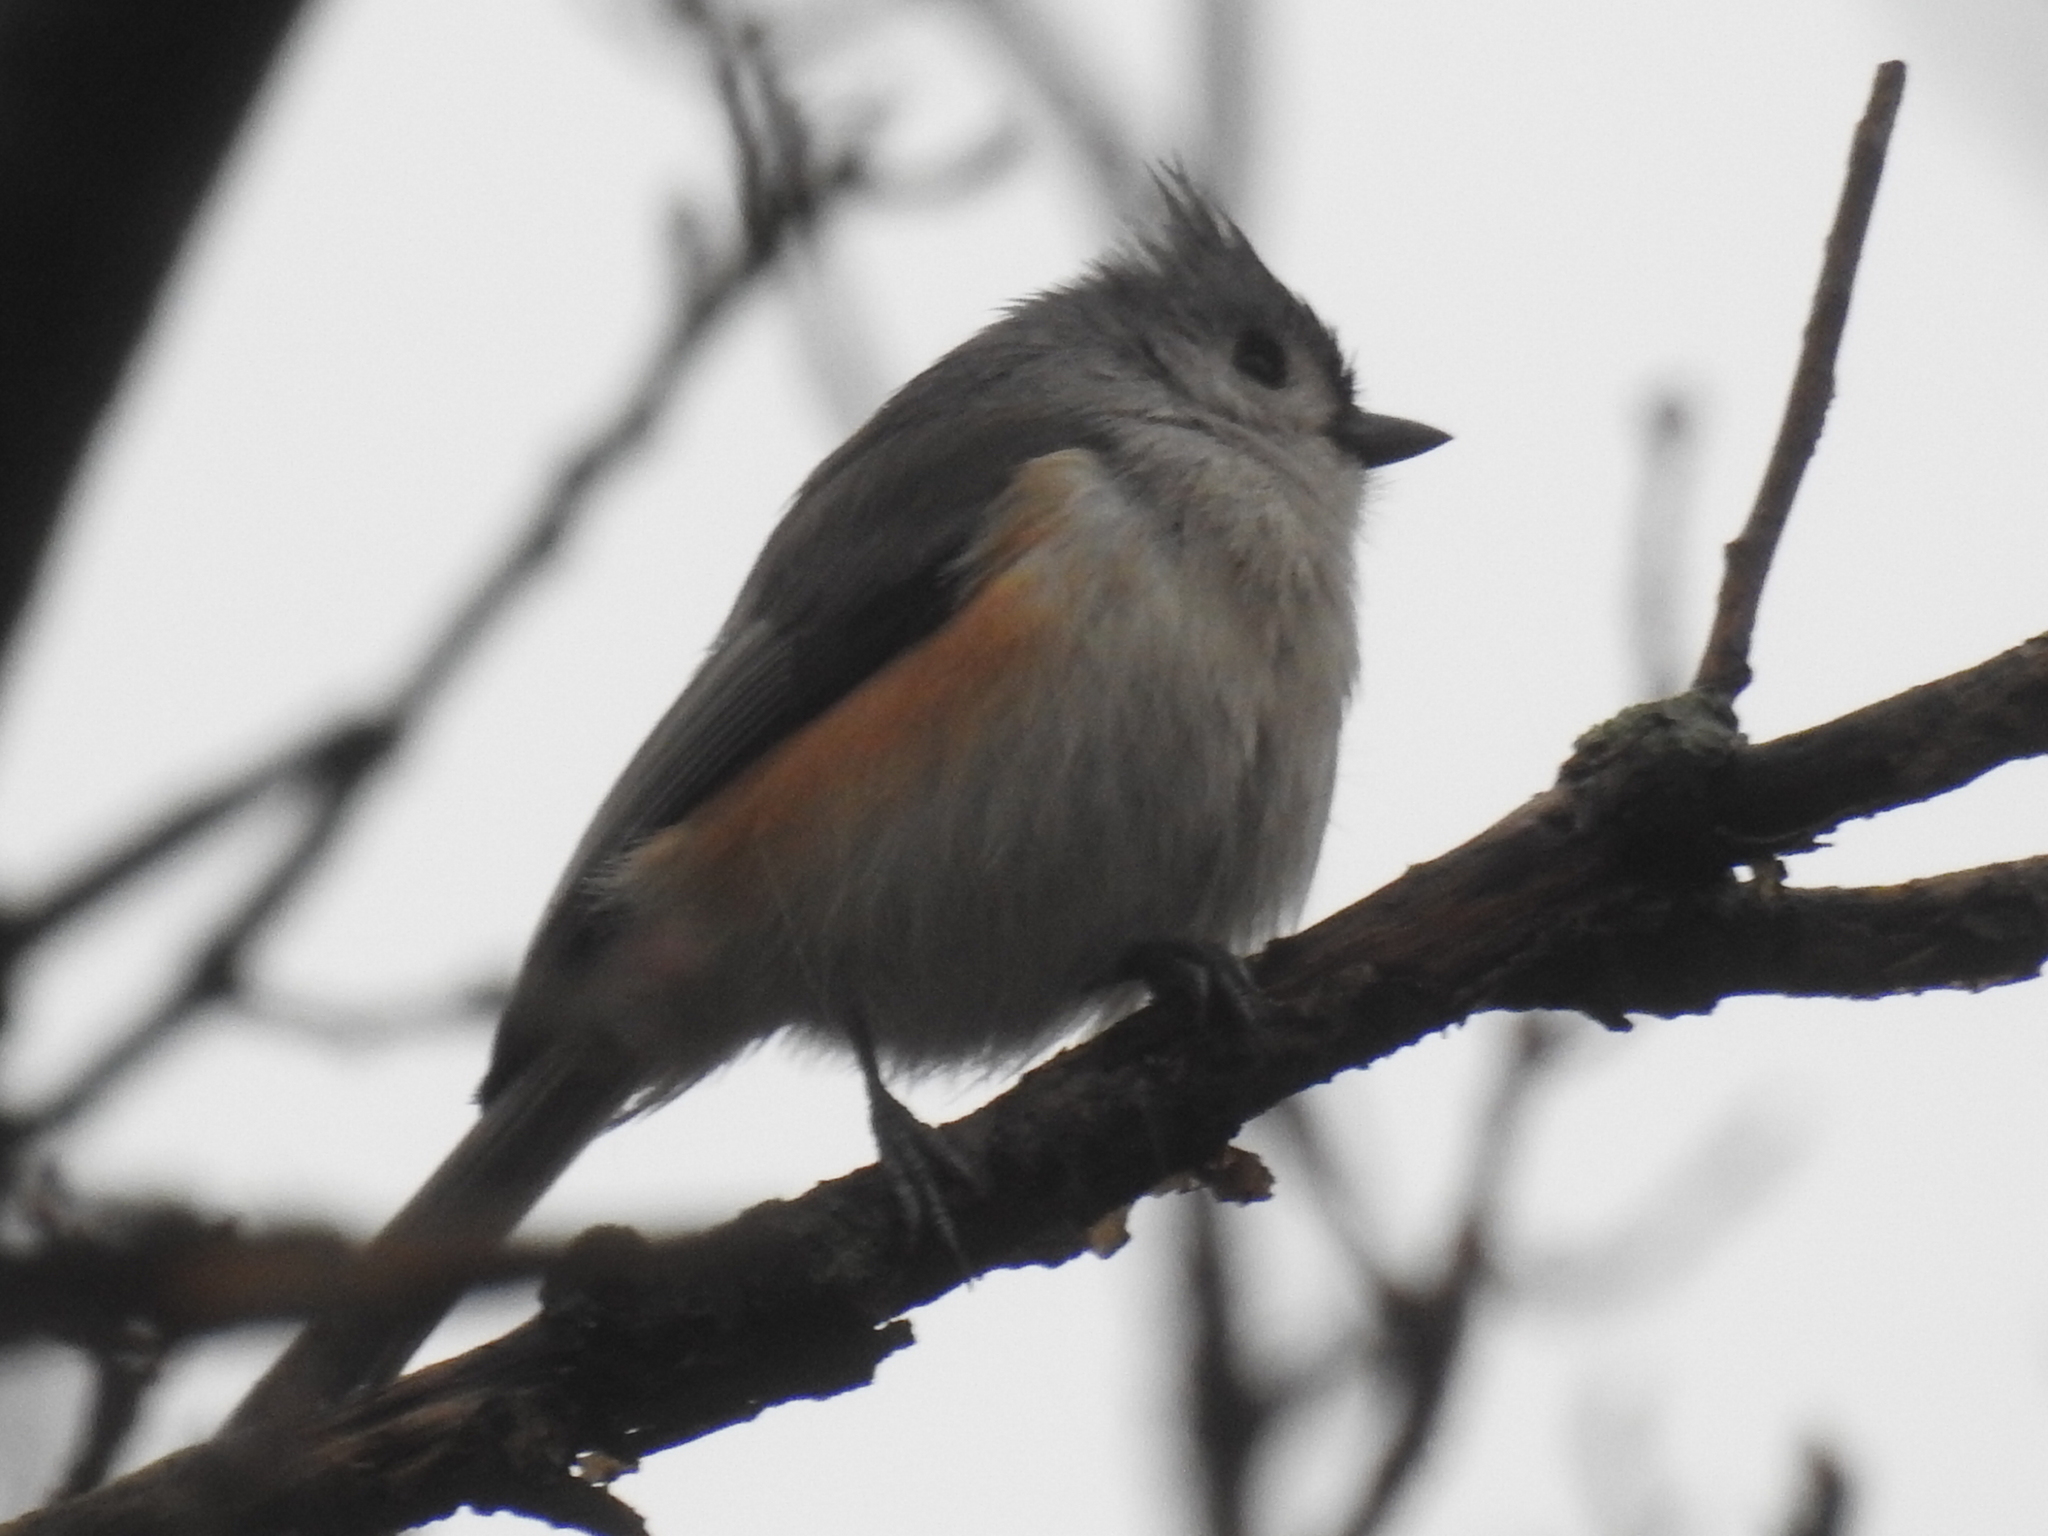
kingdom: Animalia
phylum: Chordata
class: Aves
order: Passeriformes
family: Paridae
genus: Baeolophus
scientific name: Baeolophus bicolor
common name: Tufted titmouse
